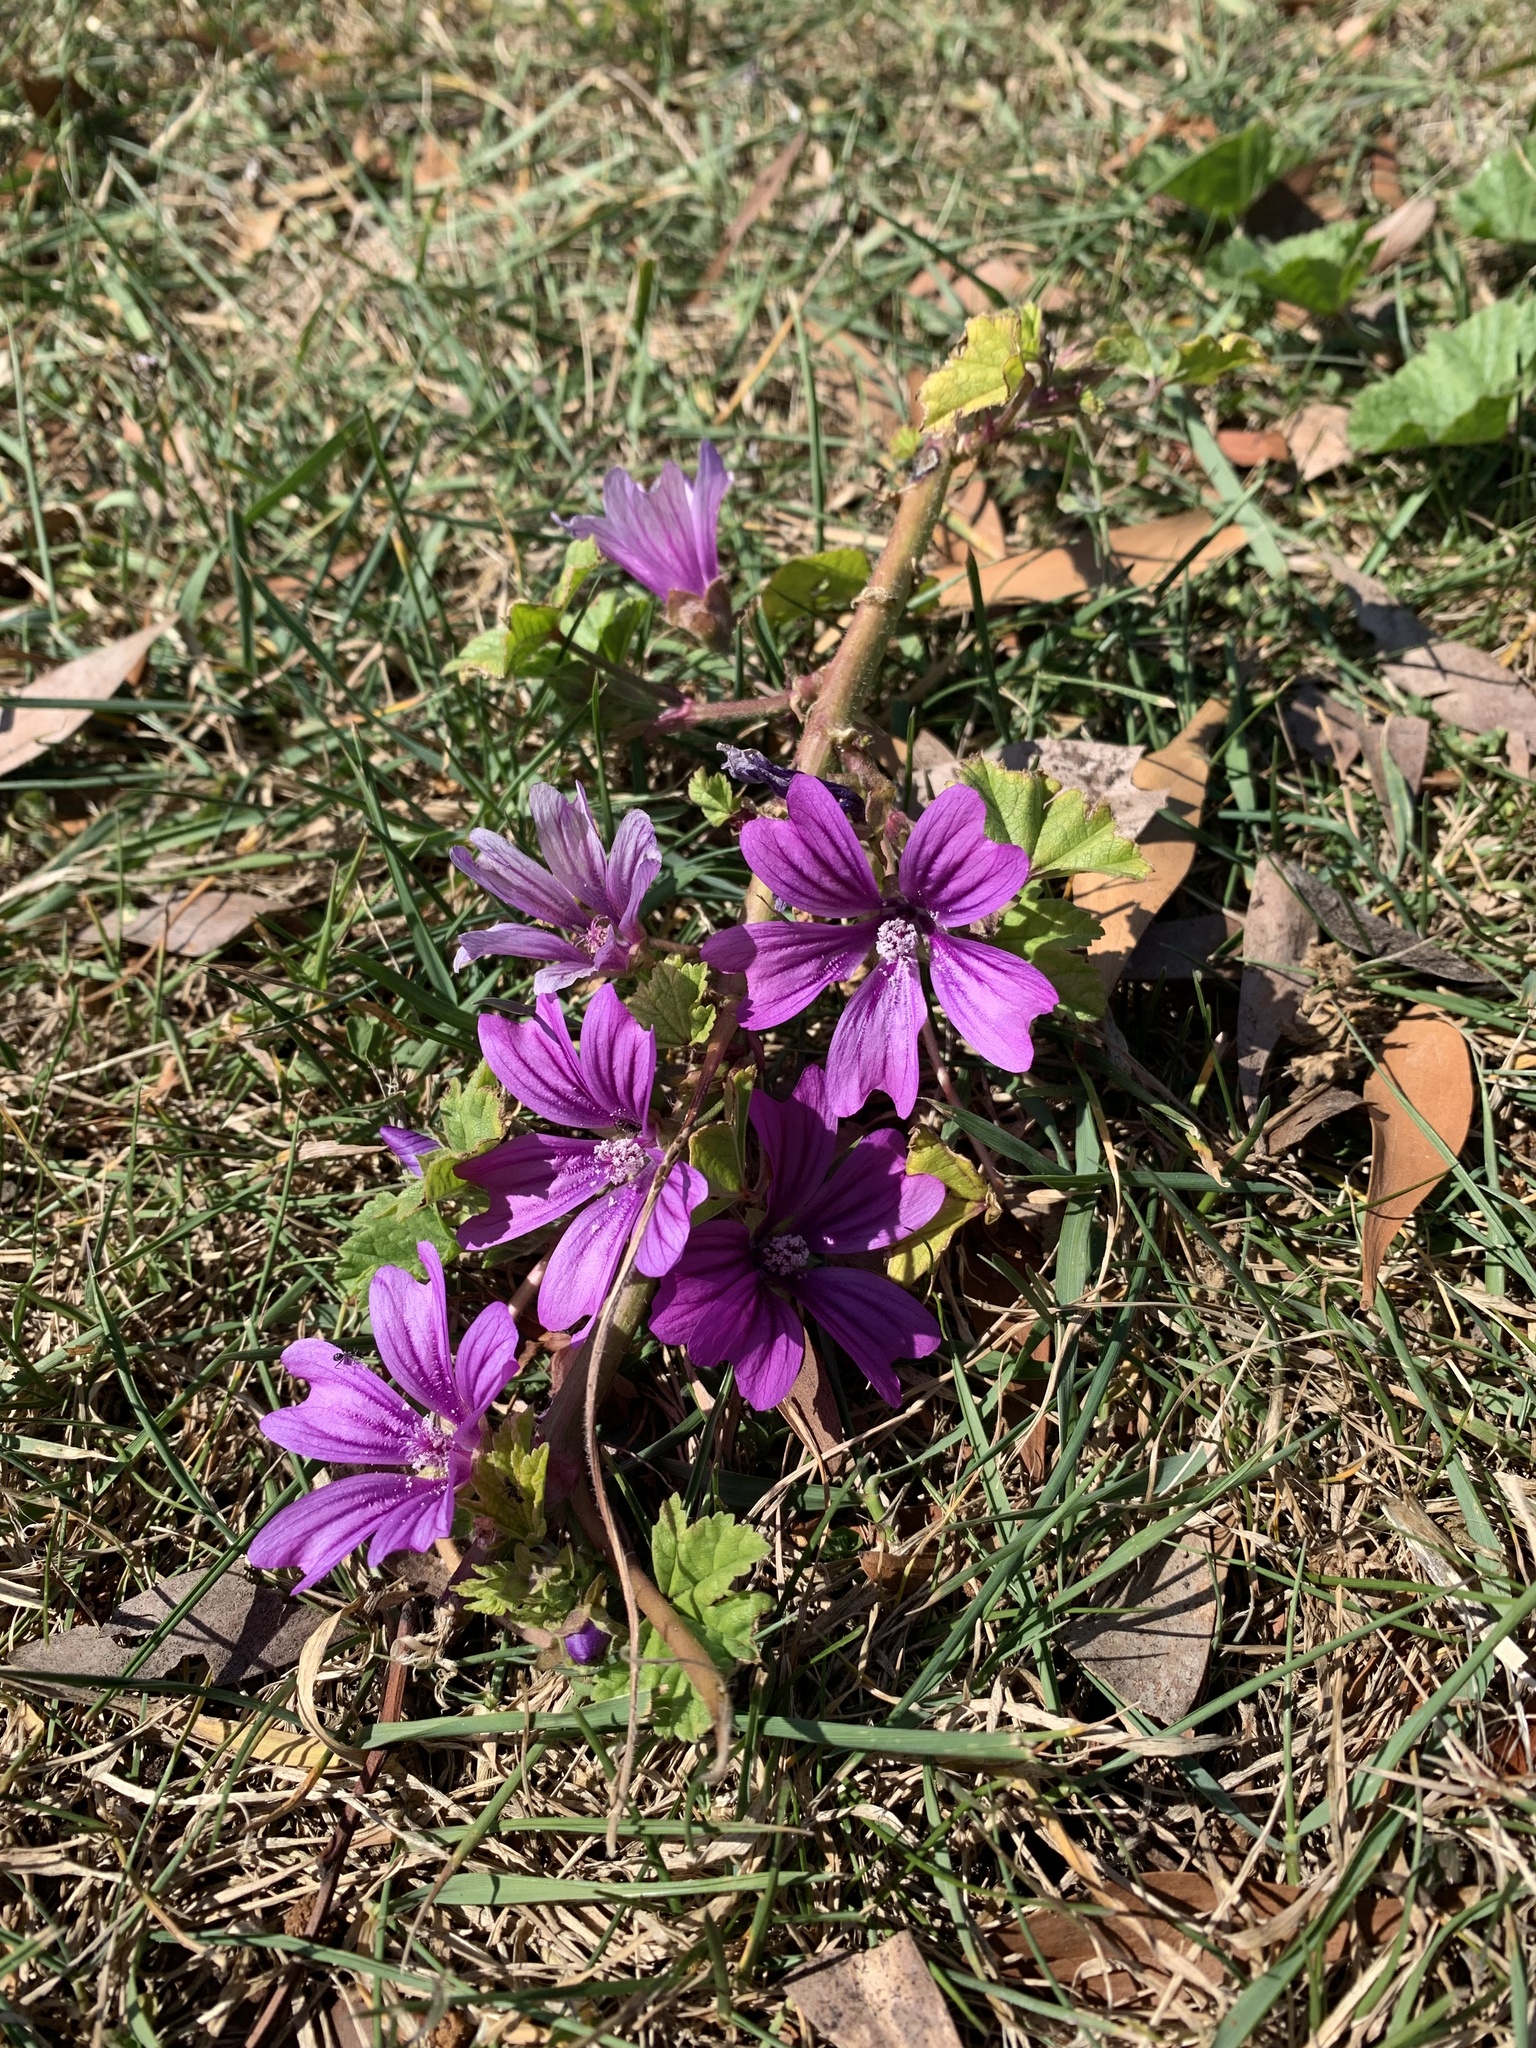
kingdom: Plantae
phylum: Tracheophyta
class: Magnoliopsida
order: Malvales
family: Malvaceae
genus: Malva
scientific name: Malva sylvestris
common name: Common mallow
